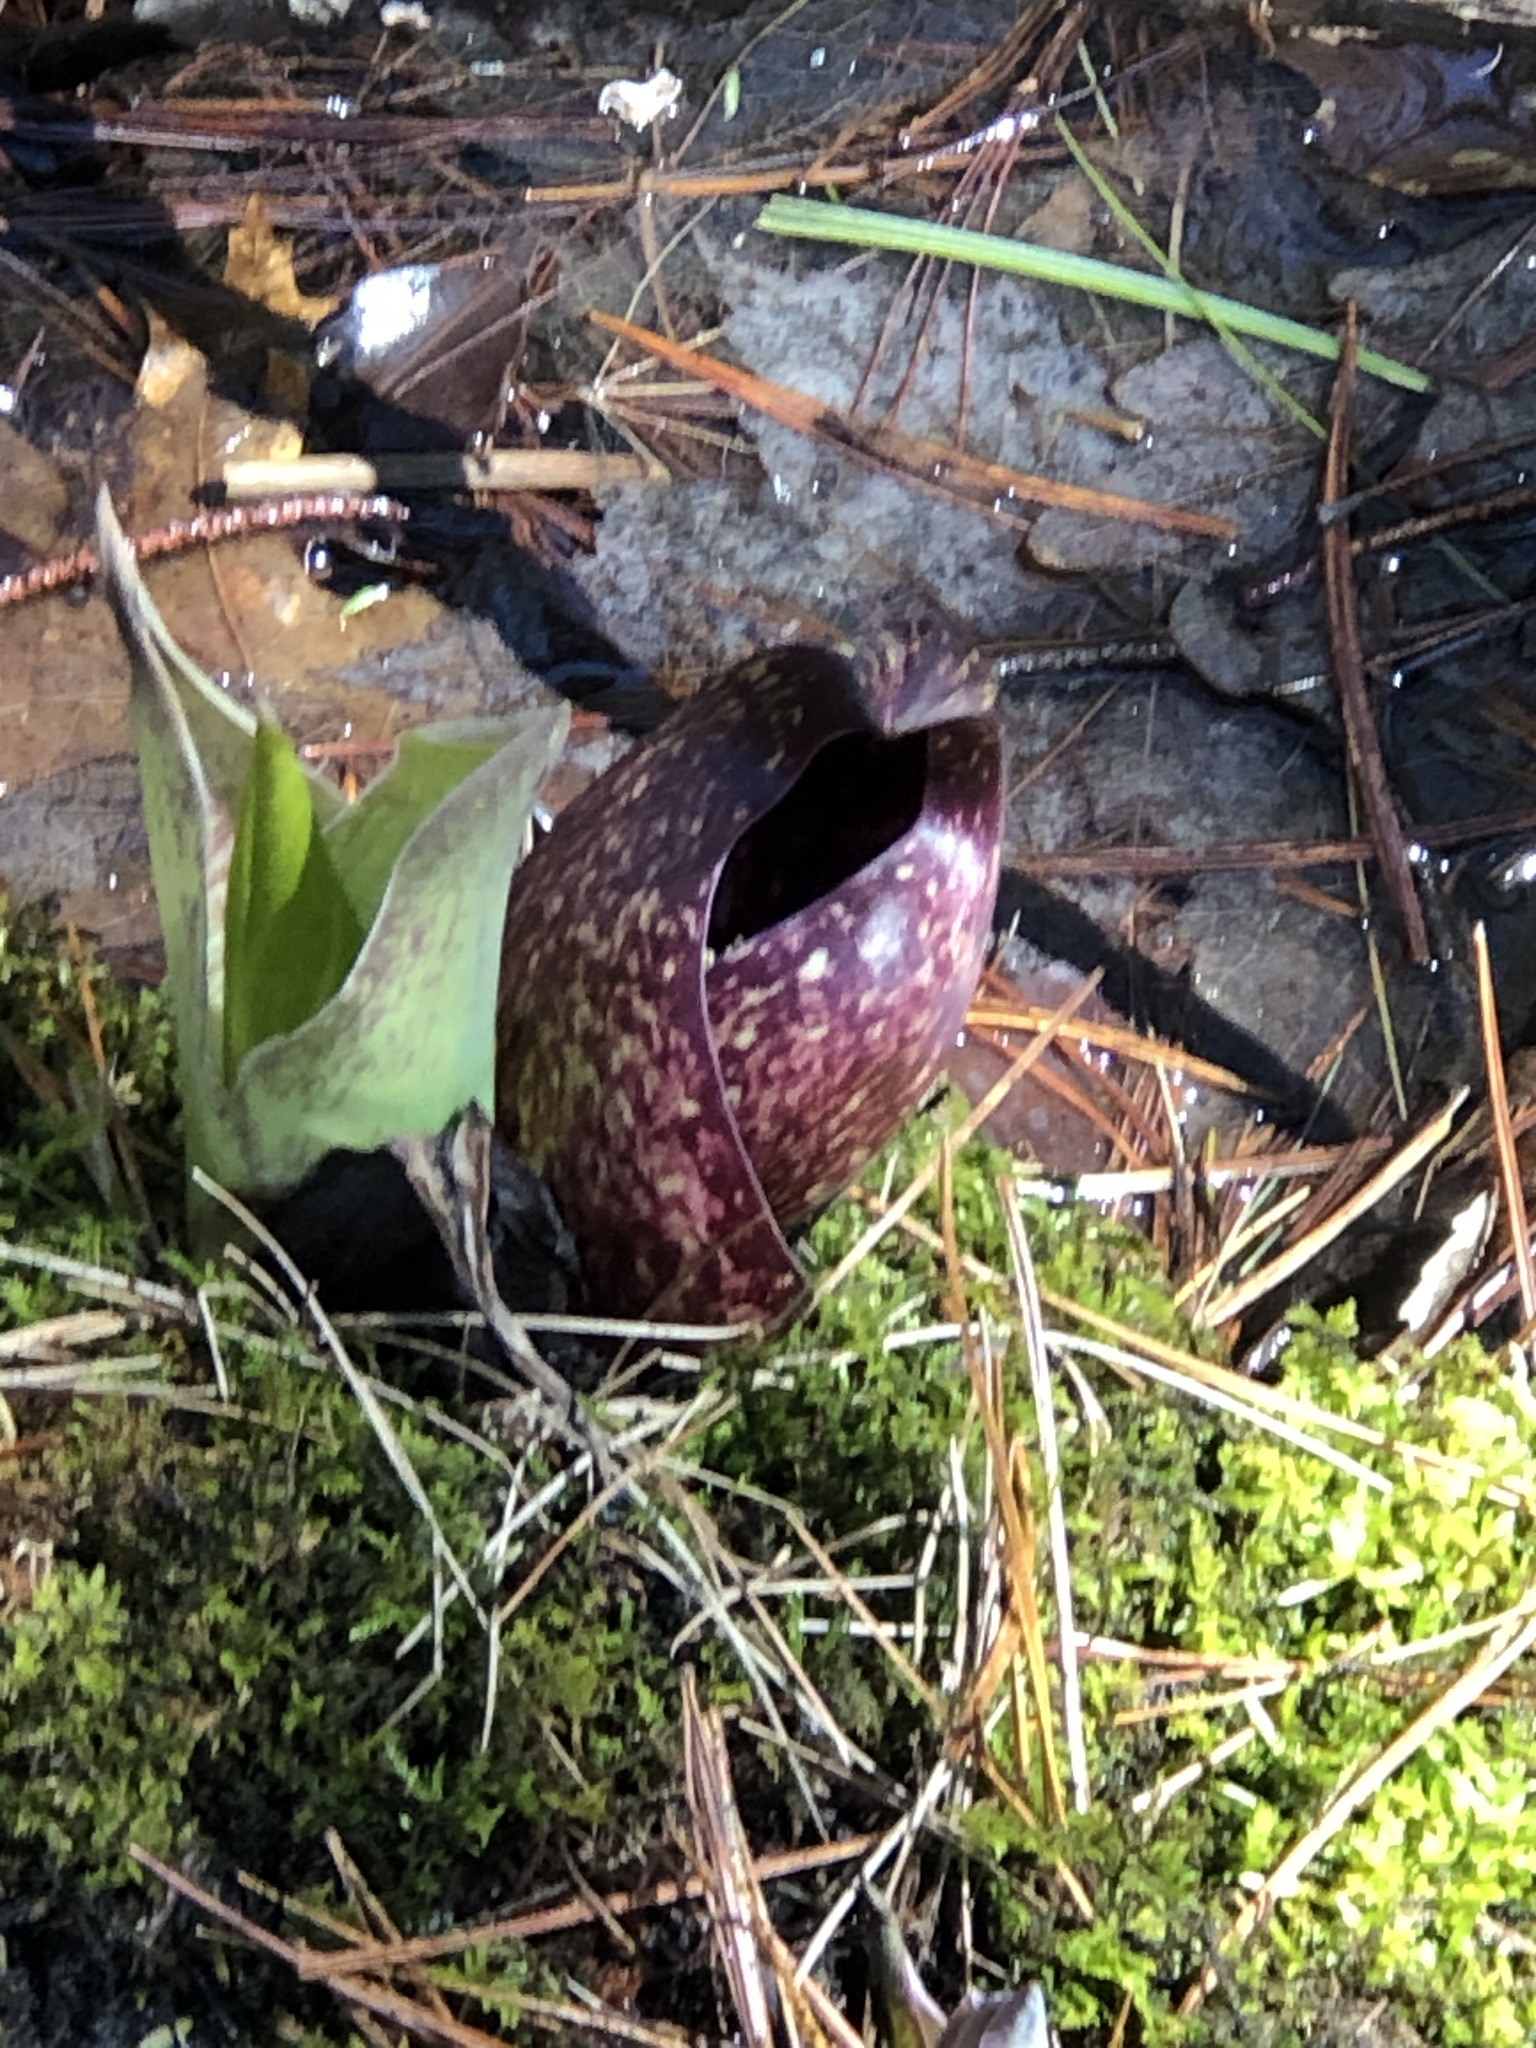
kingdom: Plantae
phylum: Tracheophyta
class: Liliopsida
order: Alismatales
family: Araceae
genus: Symplocarpus
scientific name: Symplocarpus foetidus
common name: Eastern skunk cabbage
